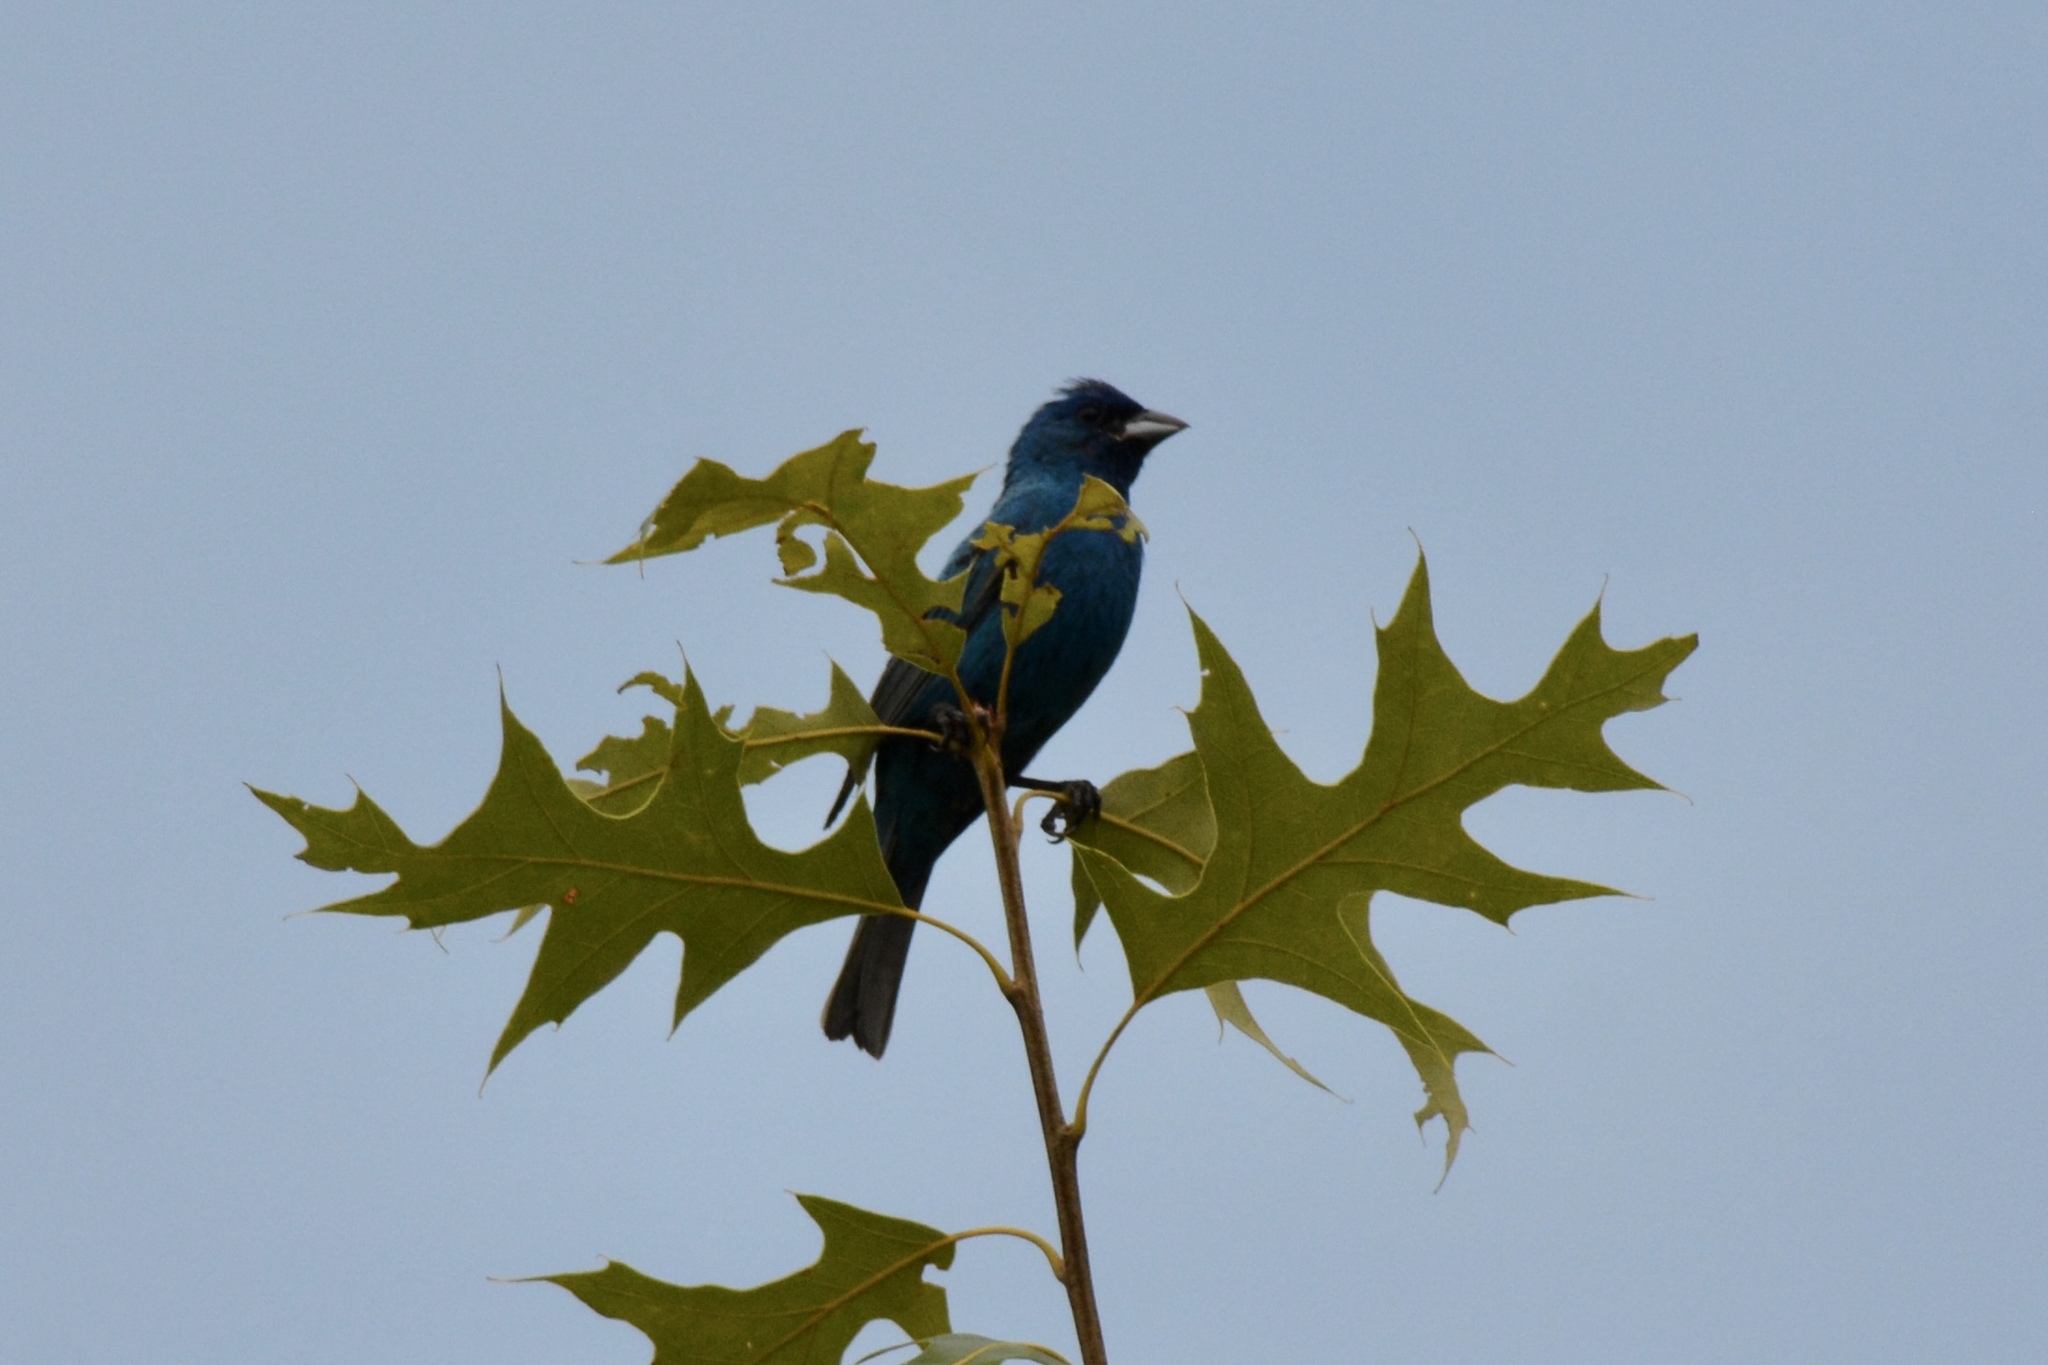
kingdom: Animalia
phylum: Chordata
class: Aves
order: Passeriformes
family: Cardinalidae
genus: Passerina
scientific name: Passerina cyanea
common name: Indigo bunting
